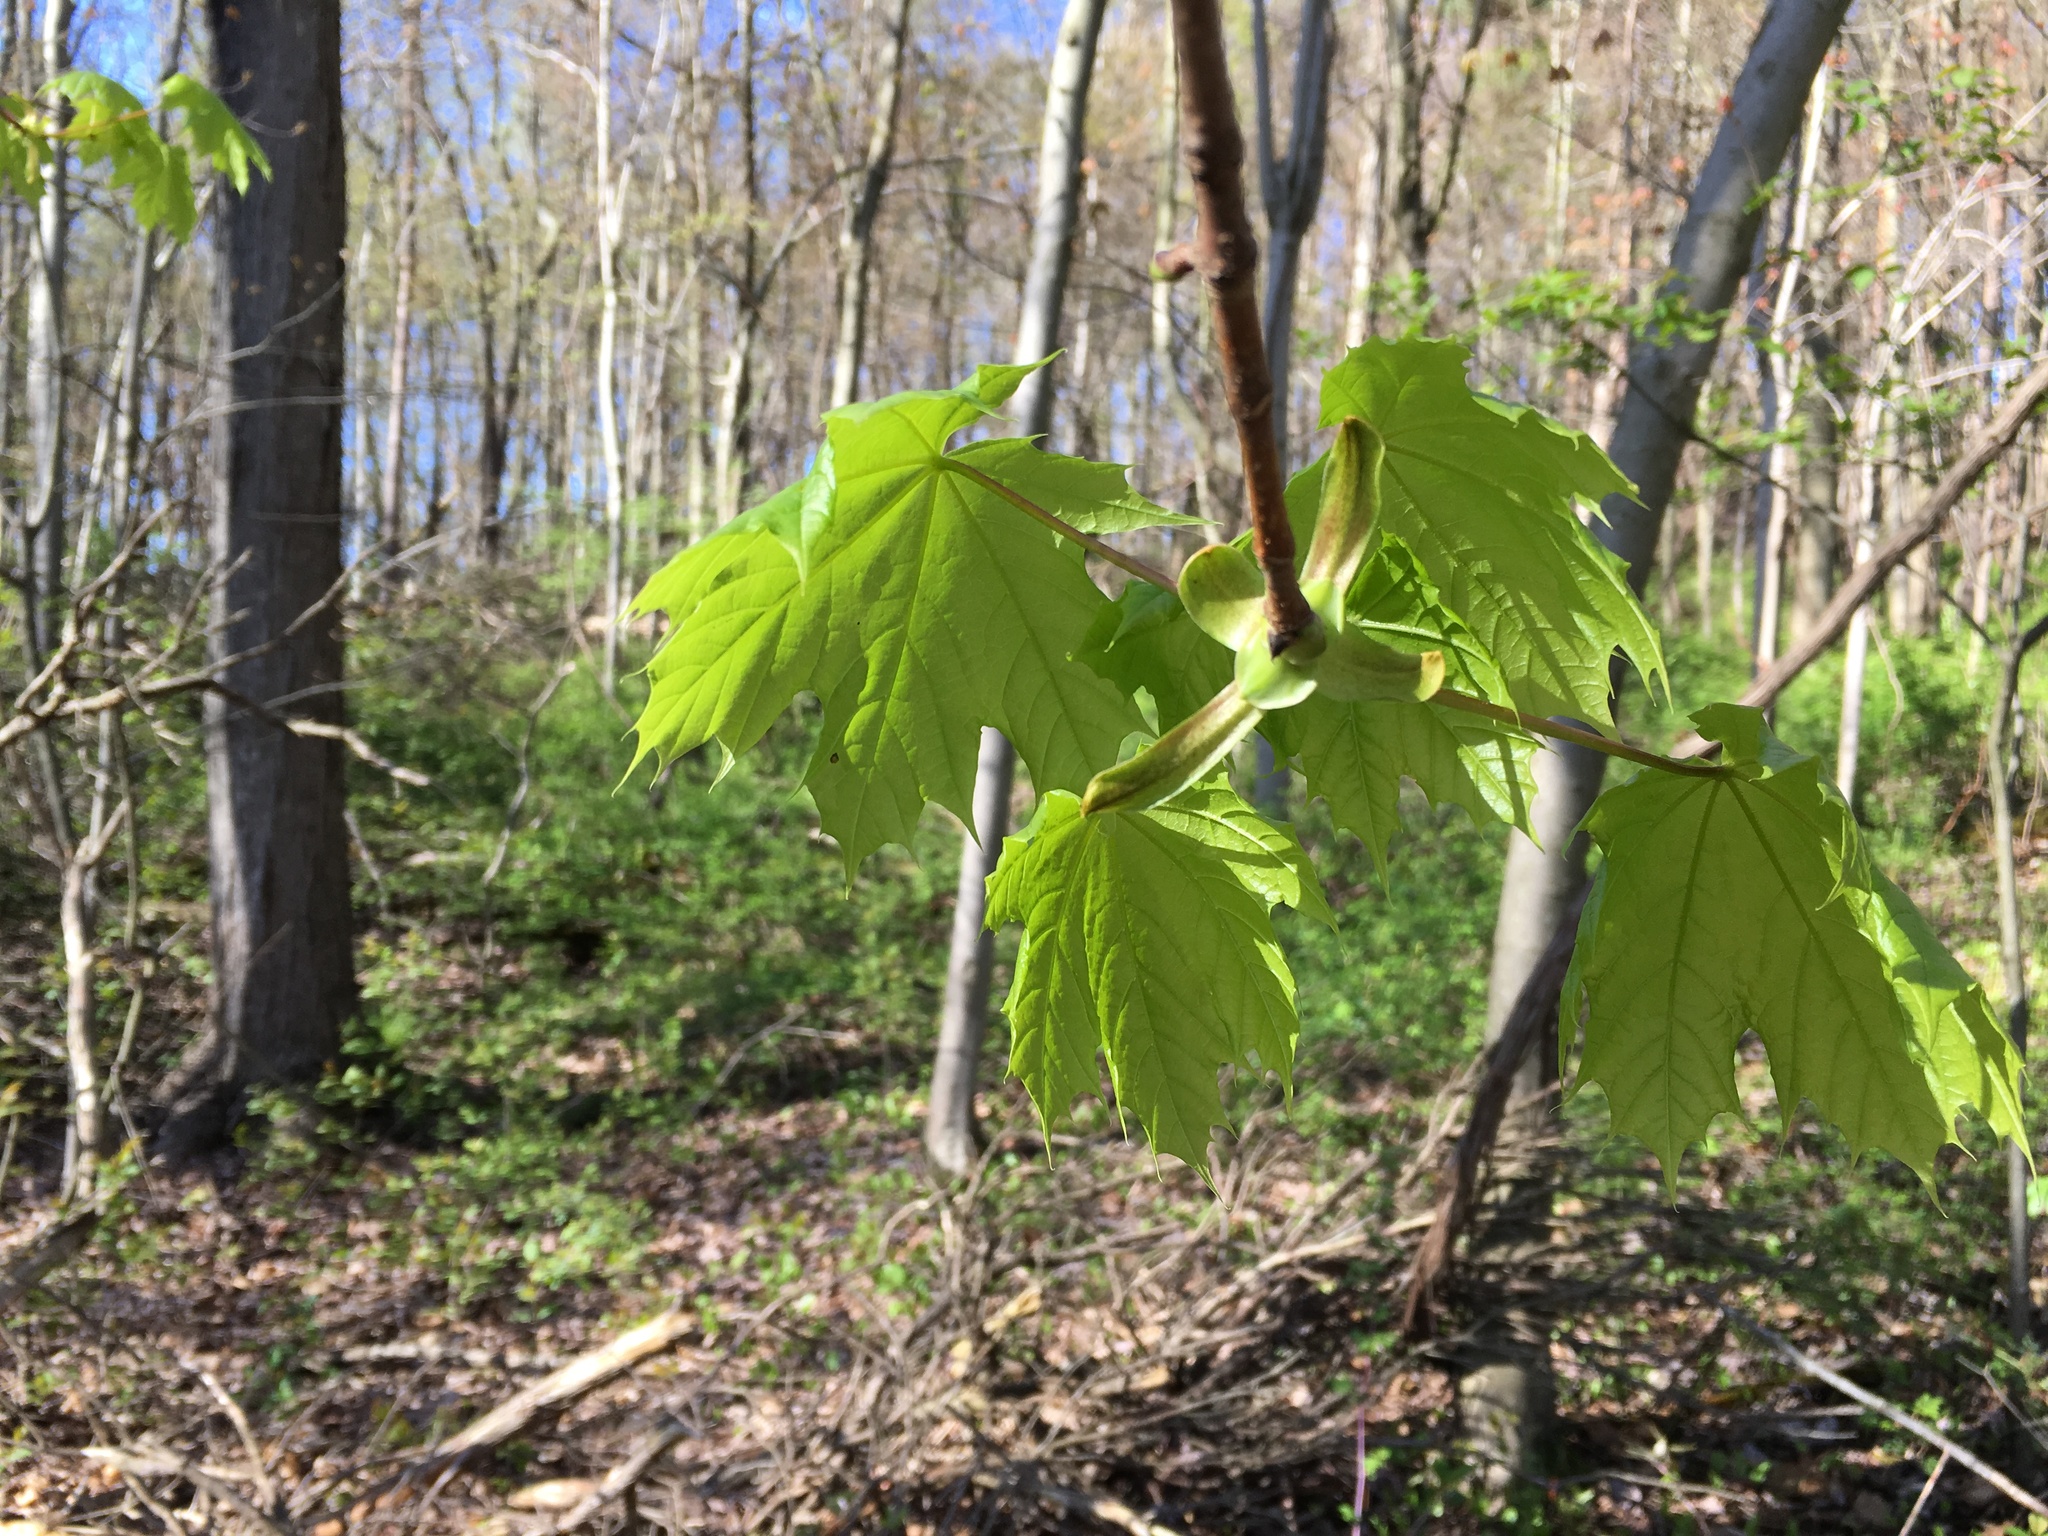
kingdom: Plantae
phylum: Tracheophyta
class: Magnoliopsida
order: Sapindales
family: Sapindaceae
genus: Acer
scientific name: Acer platanoides
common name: Norway maple
